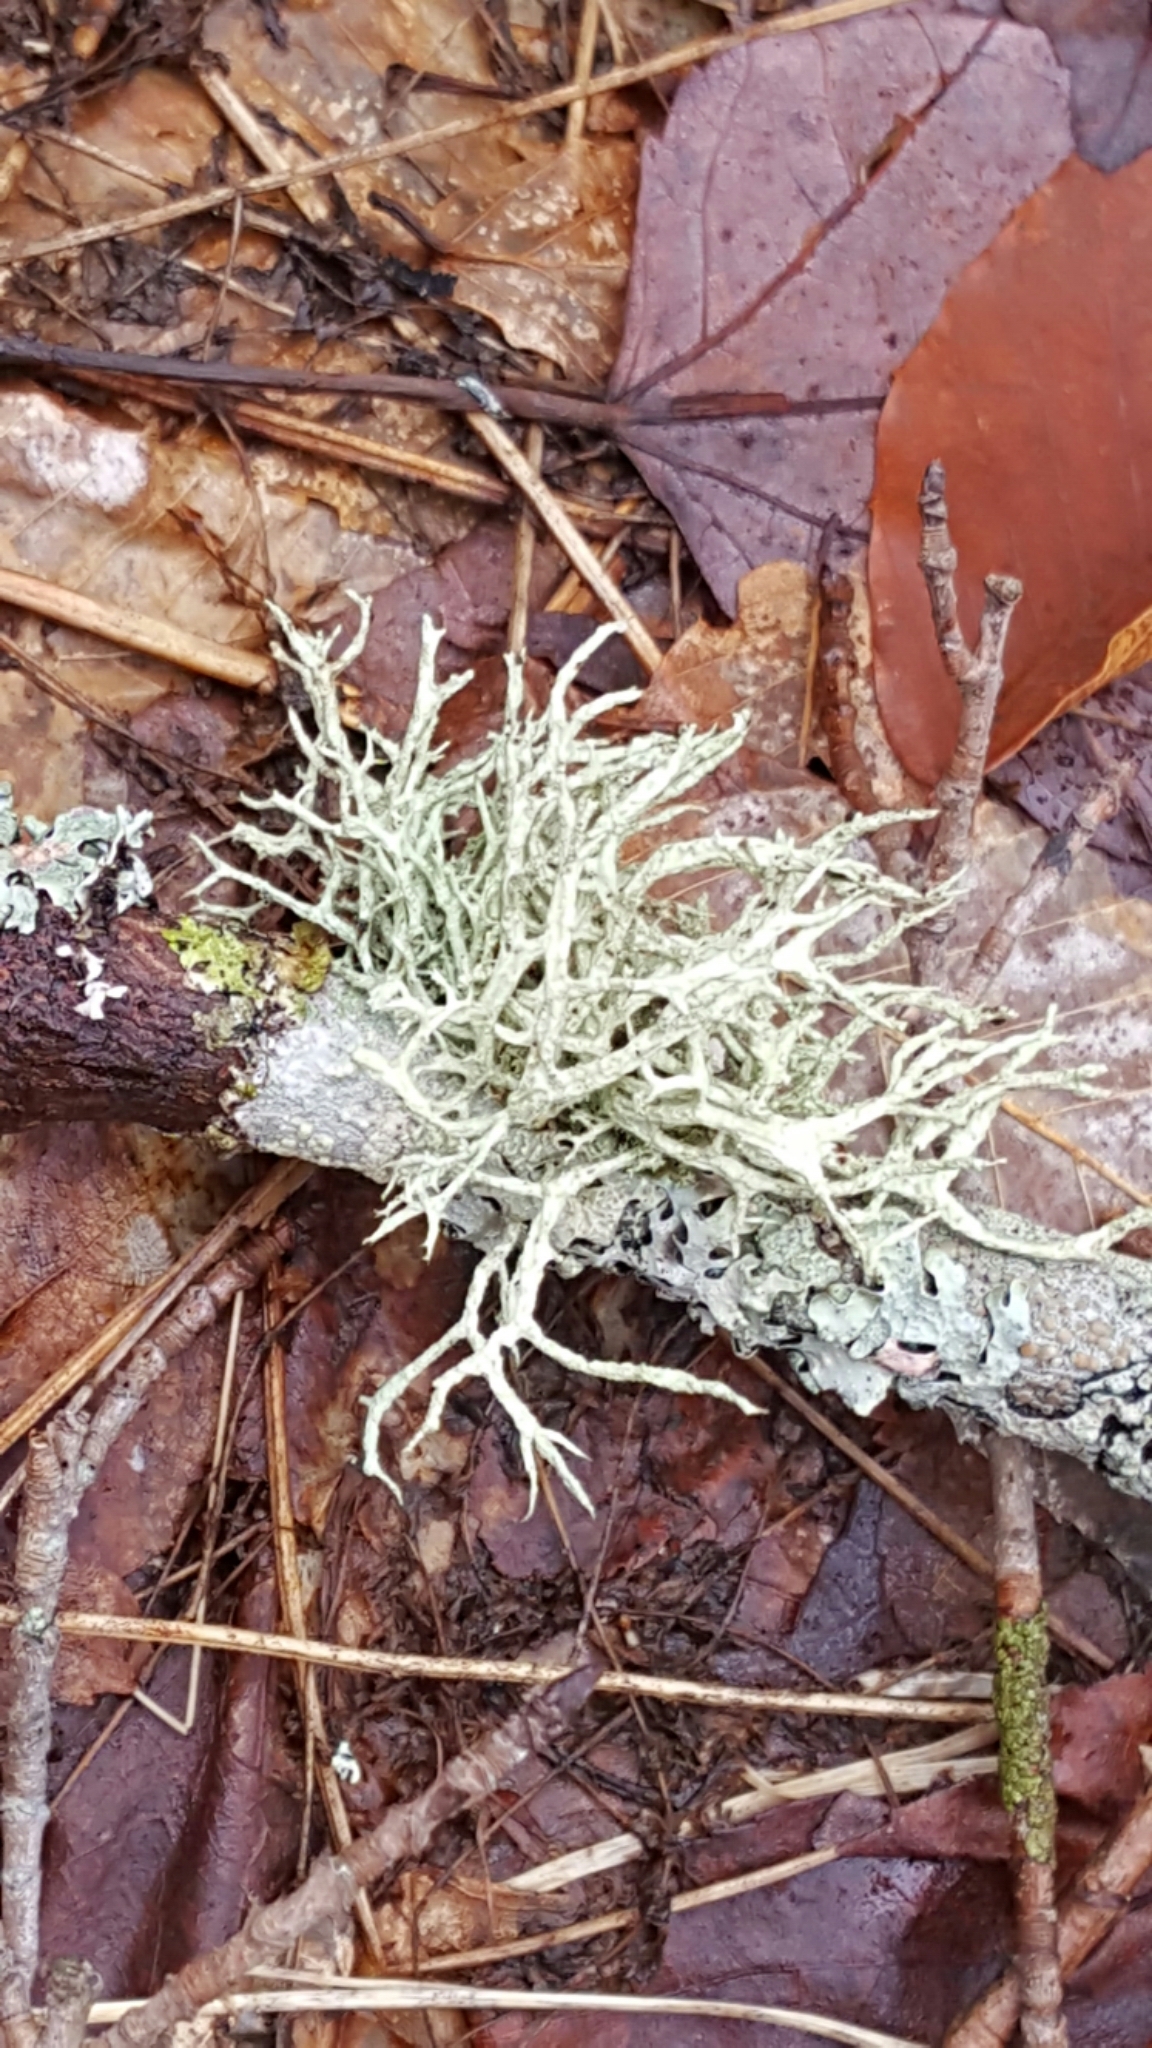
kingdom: Fungi
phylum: Ascomycota
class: Lecanoromycetes
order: Lecanorales
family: Parmeliaceae
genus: Evernia
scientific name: Evernia mesomorpha
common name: Boreal oak moss lichen
